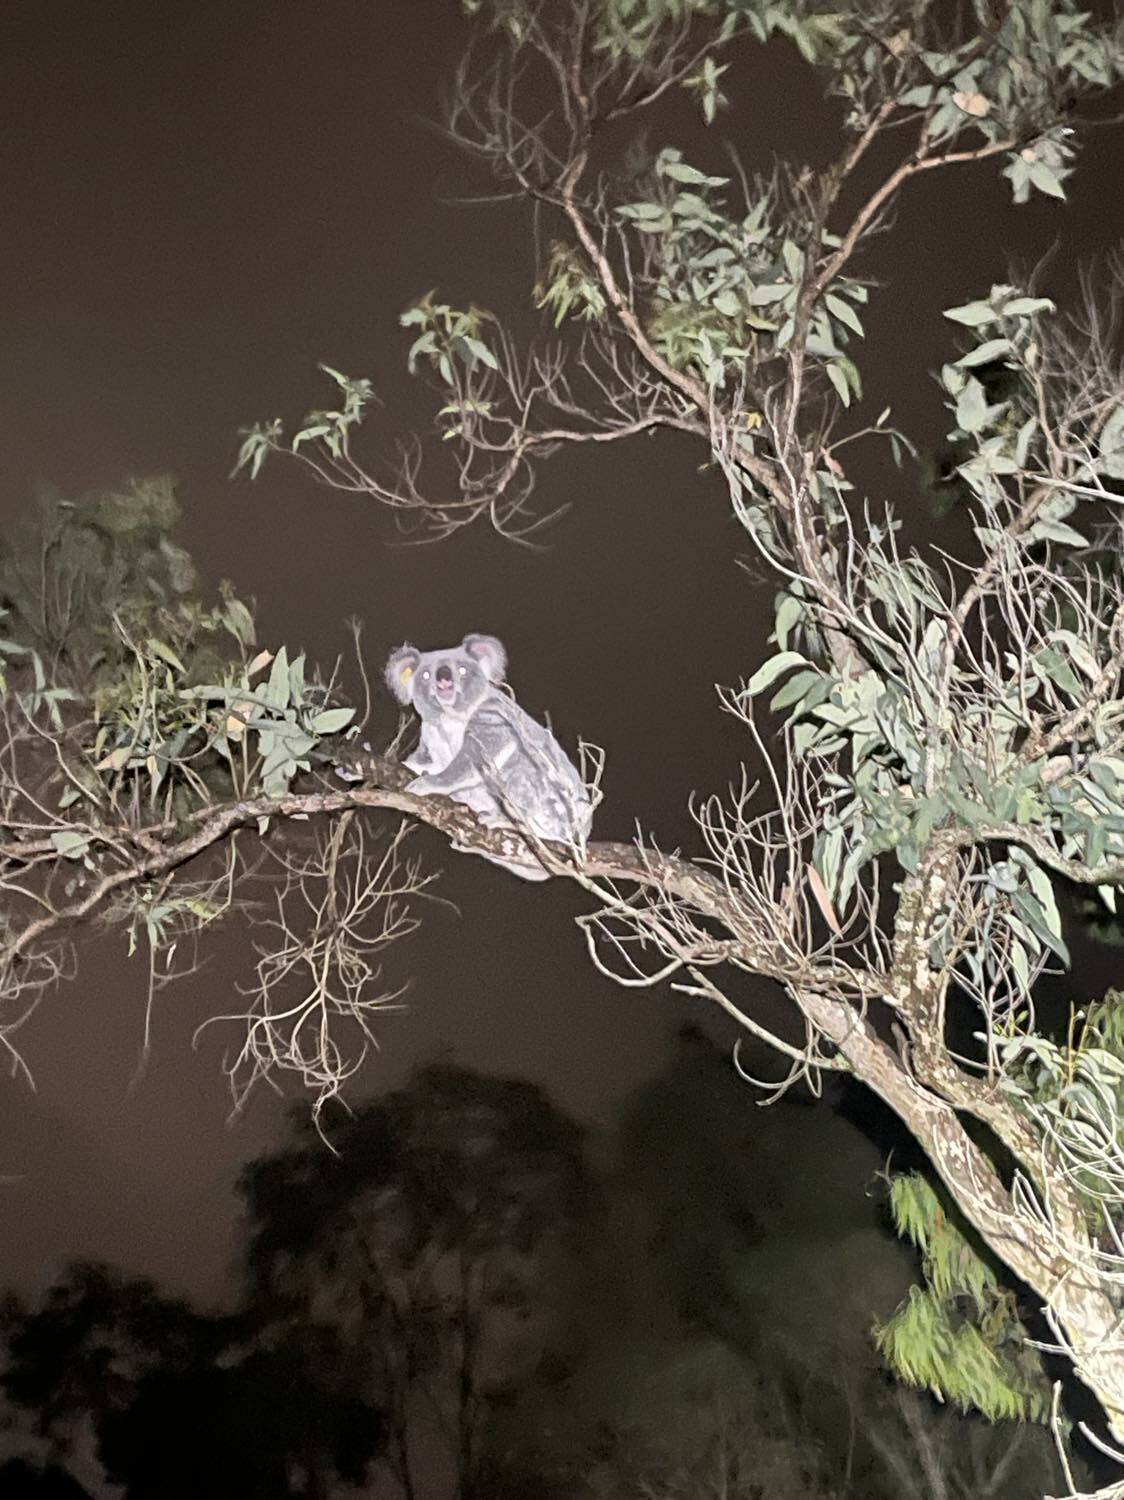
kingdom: Animalia
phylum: Chordata
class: Mammalia
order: Diprotodontia
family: Phascolarctidae
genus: Phascolarctos
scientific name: Phascolarctos cinereus
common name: Koala
